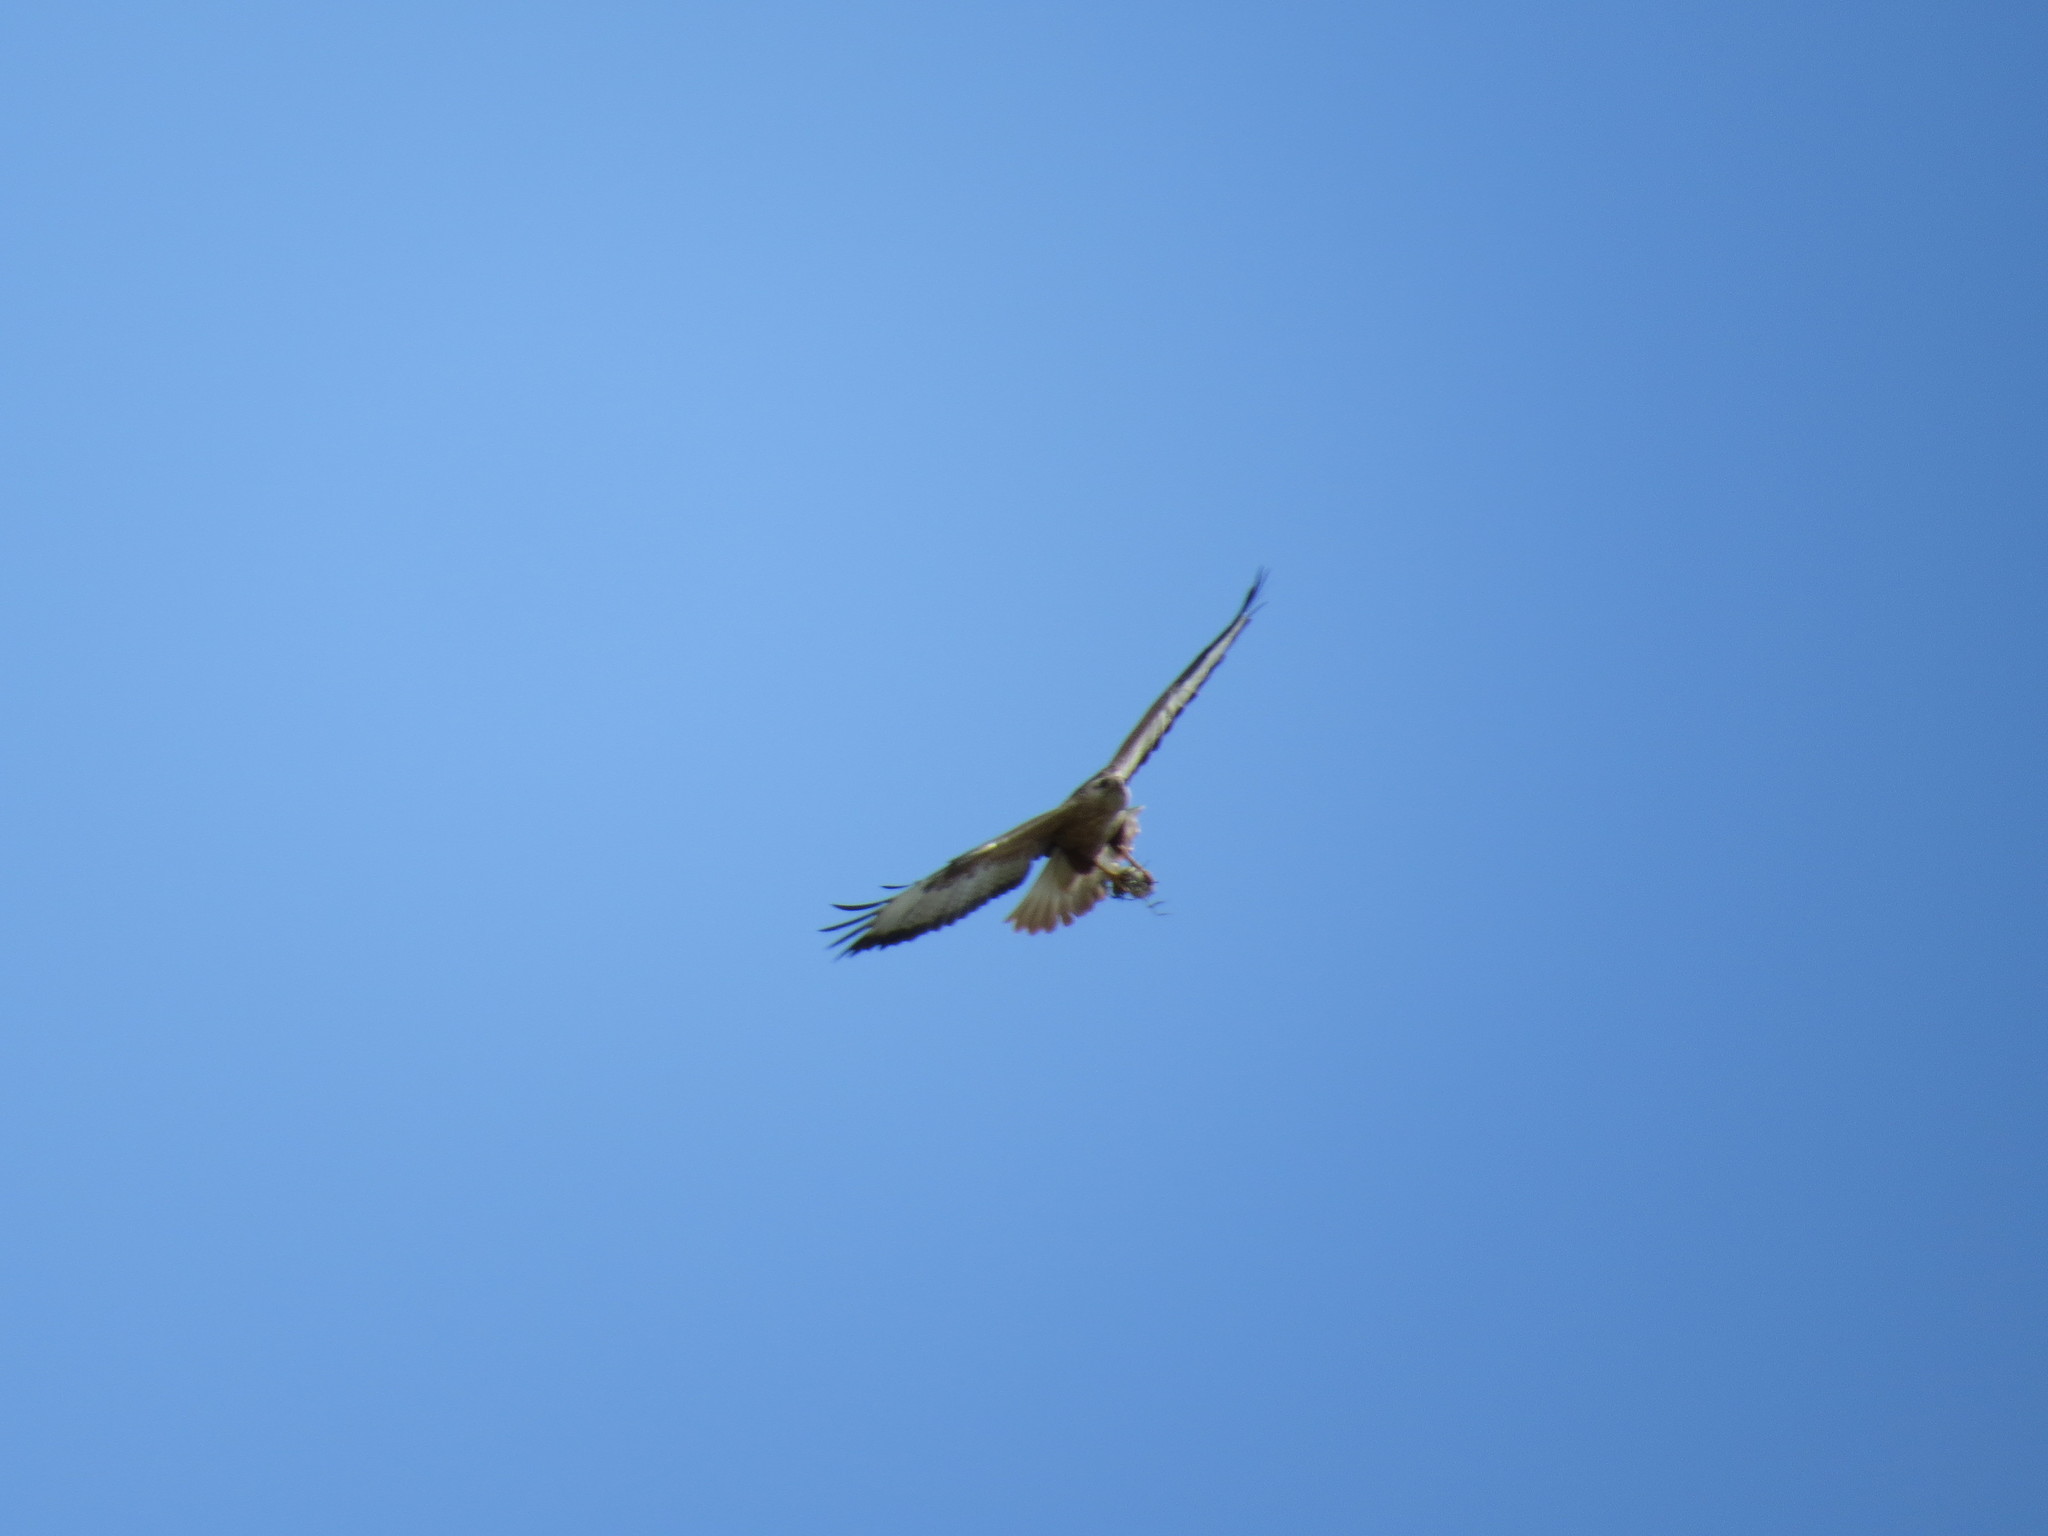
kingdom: Animalia
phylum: Chordata
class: Aves
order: Accipitriformes
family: Accipitridae
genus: Buteo
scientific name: Buteo rufinus
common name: Long-legged buzzard
